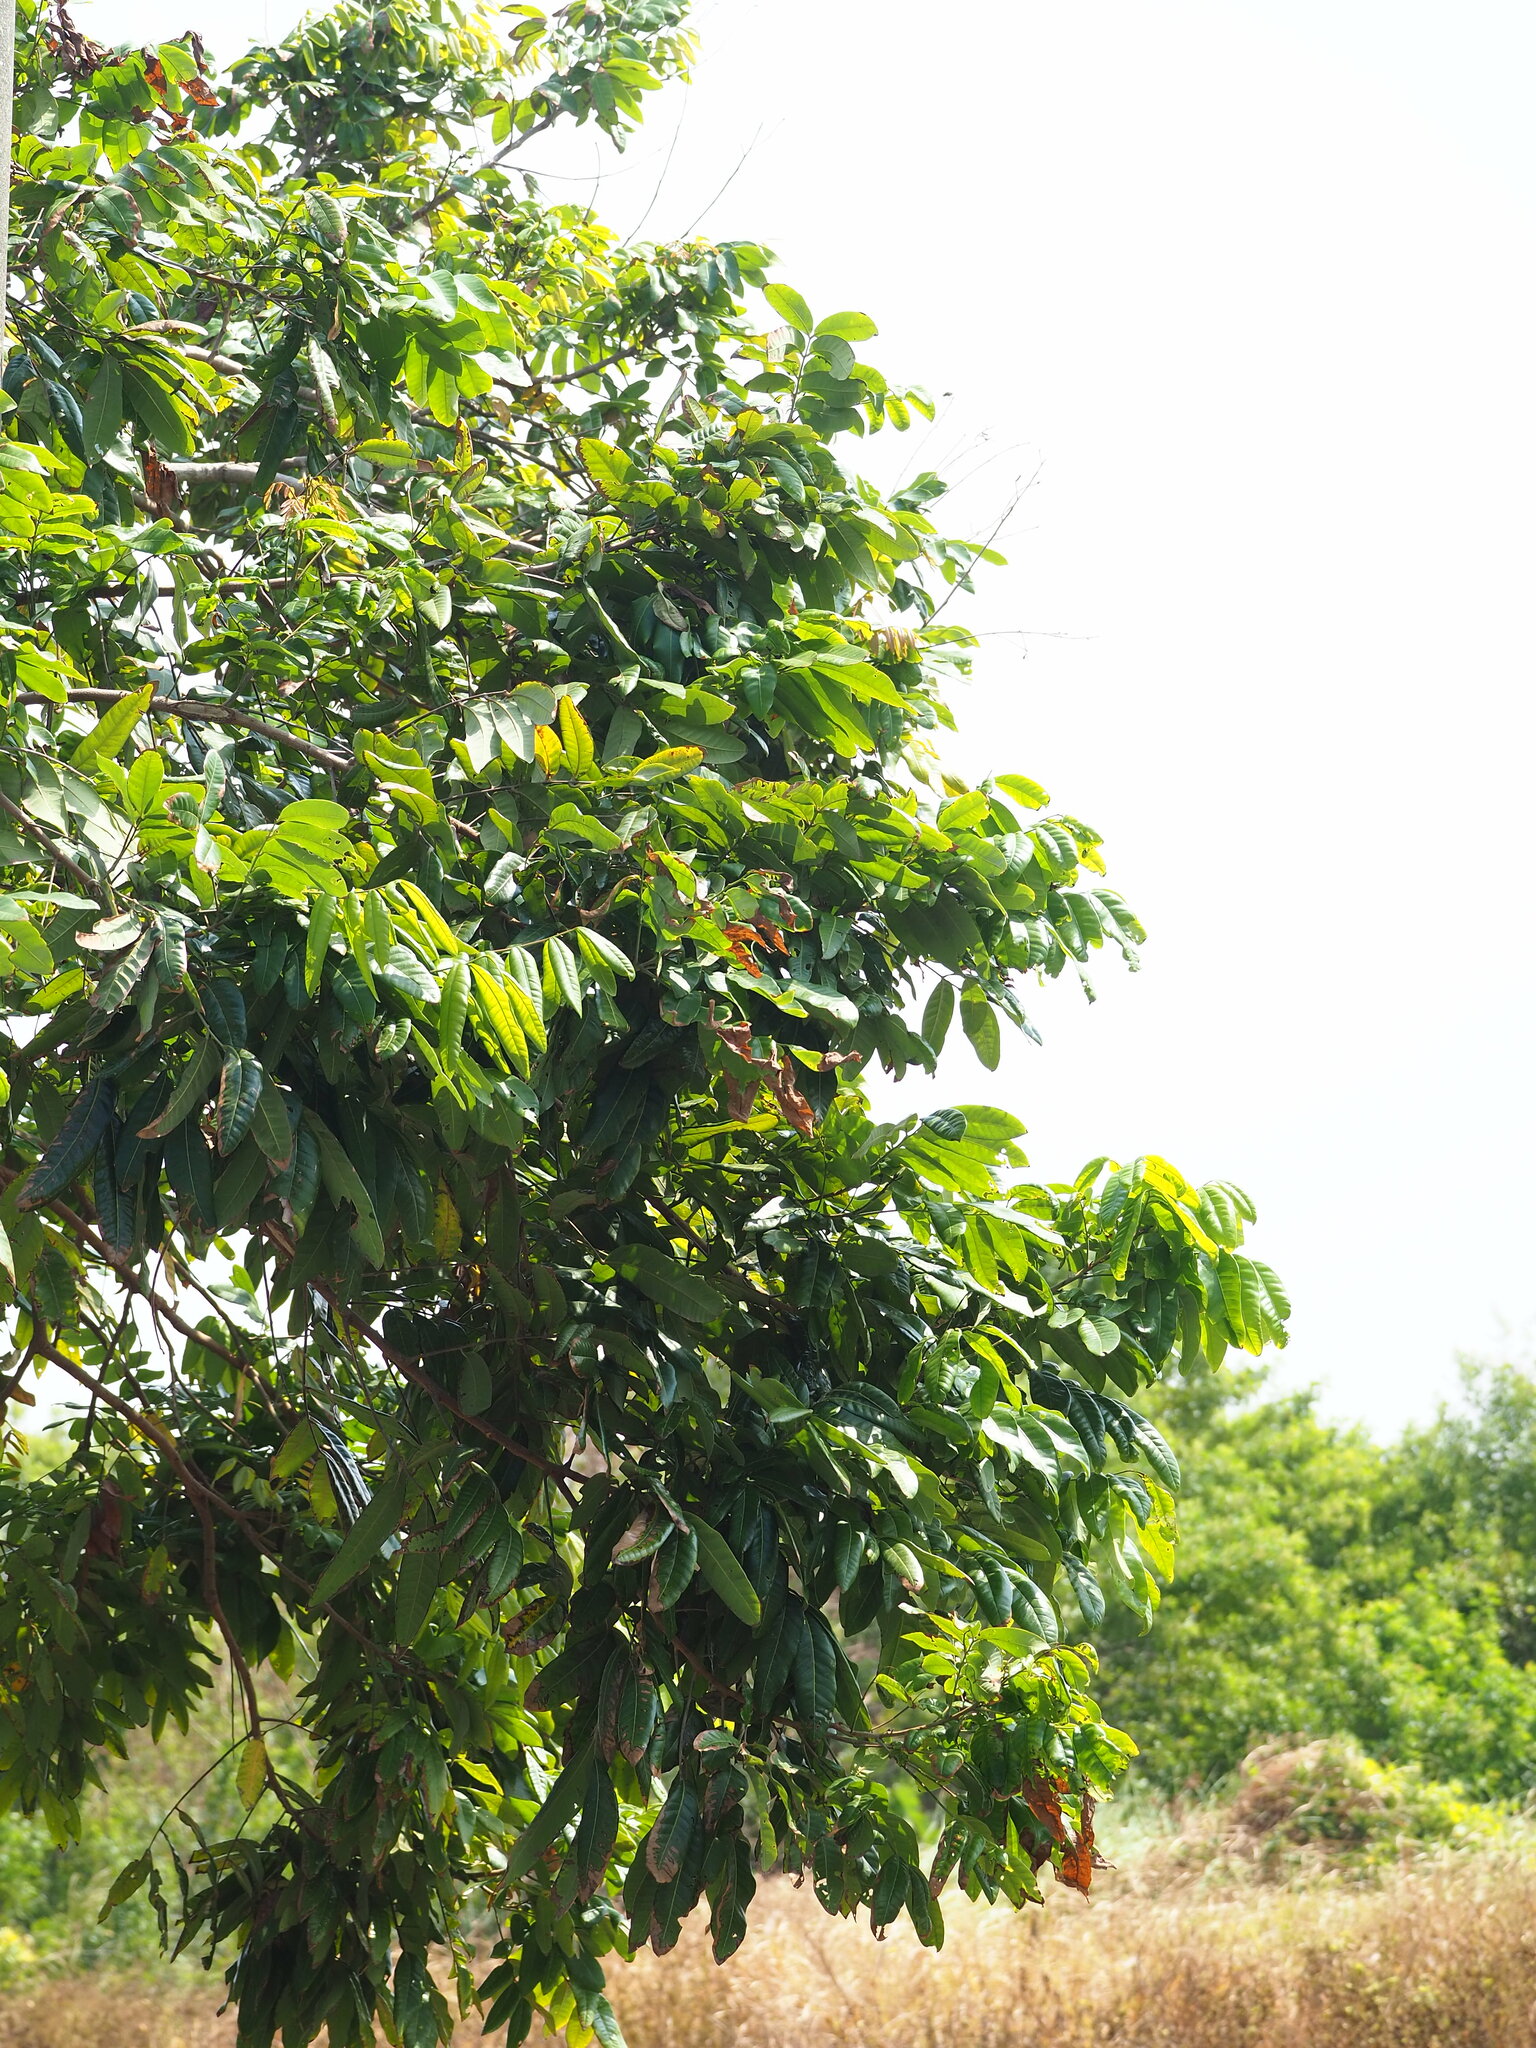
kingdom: Plantae
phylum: Tracheophyta
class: Magnoliopsida
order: Sapindales
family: Sapindaceae
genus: Dimocarpus
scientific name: Dimocarpus longan
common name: Longan
